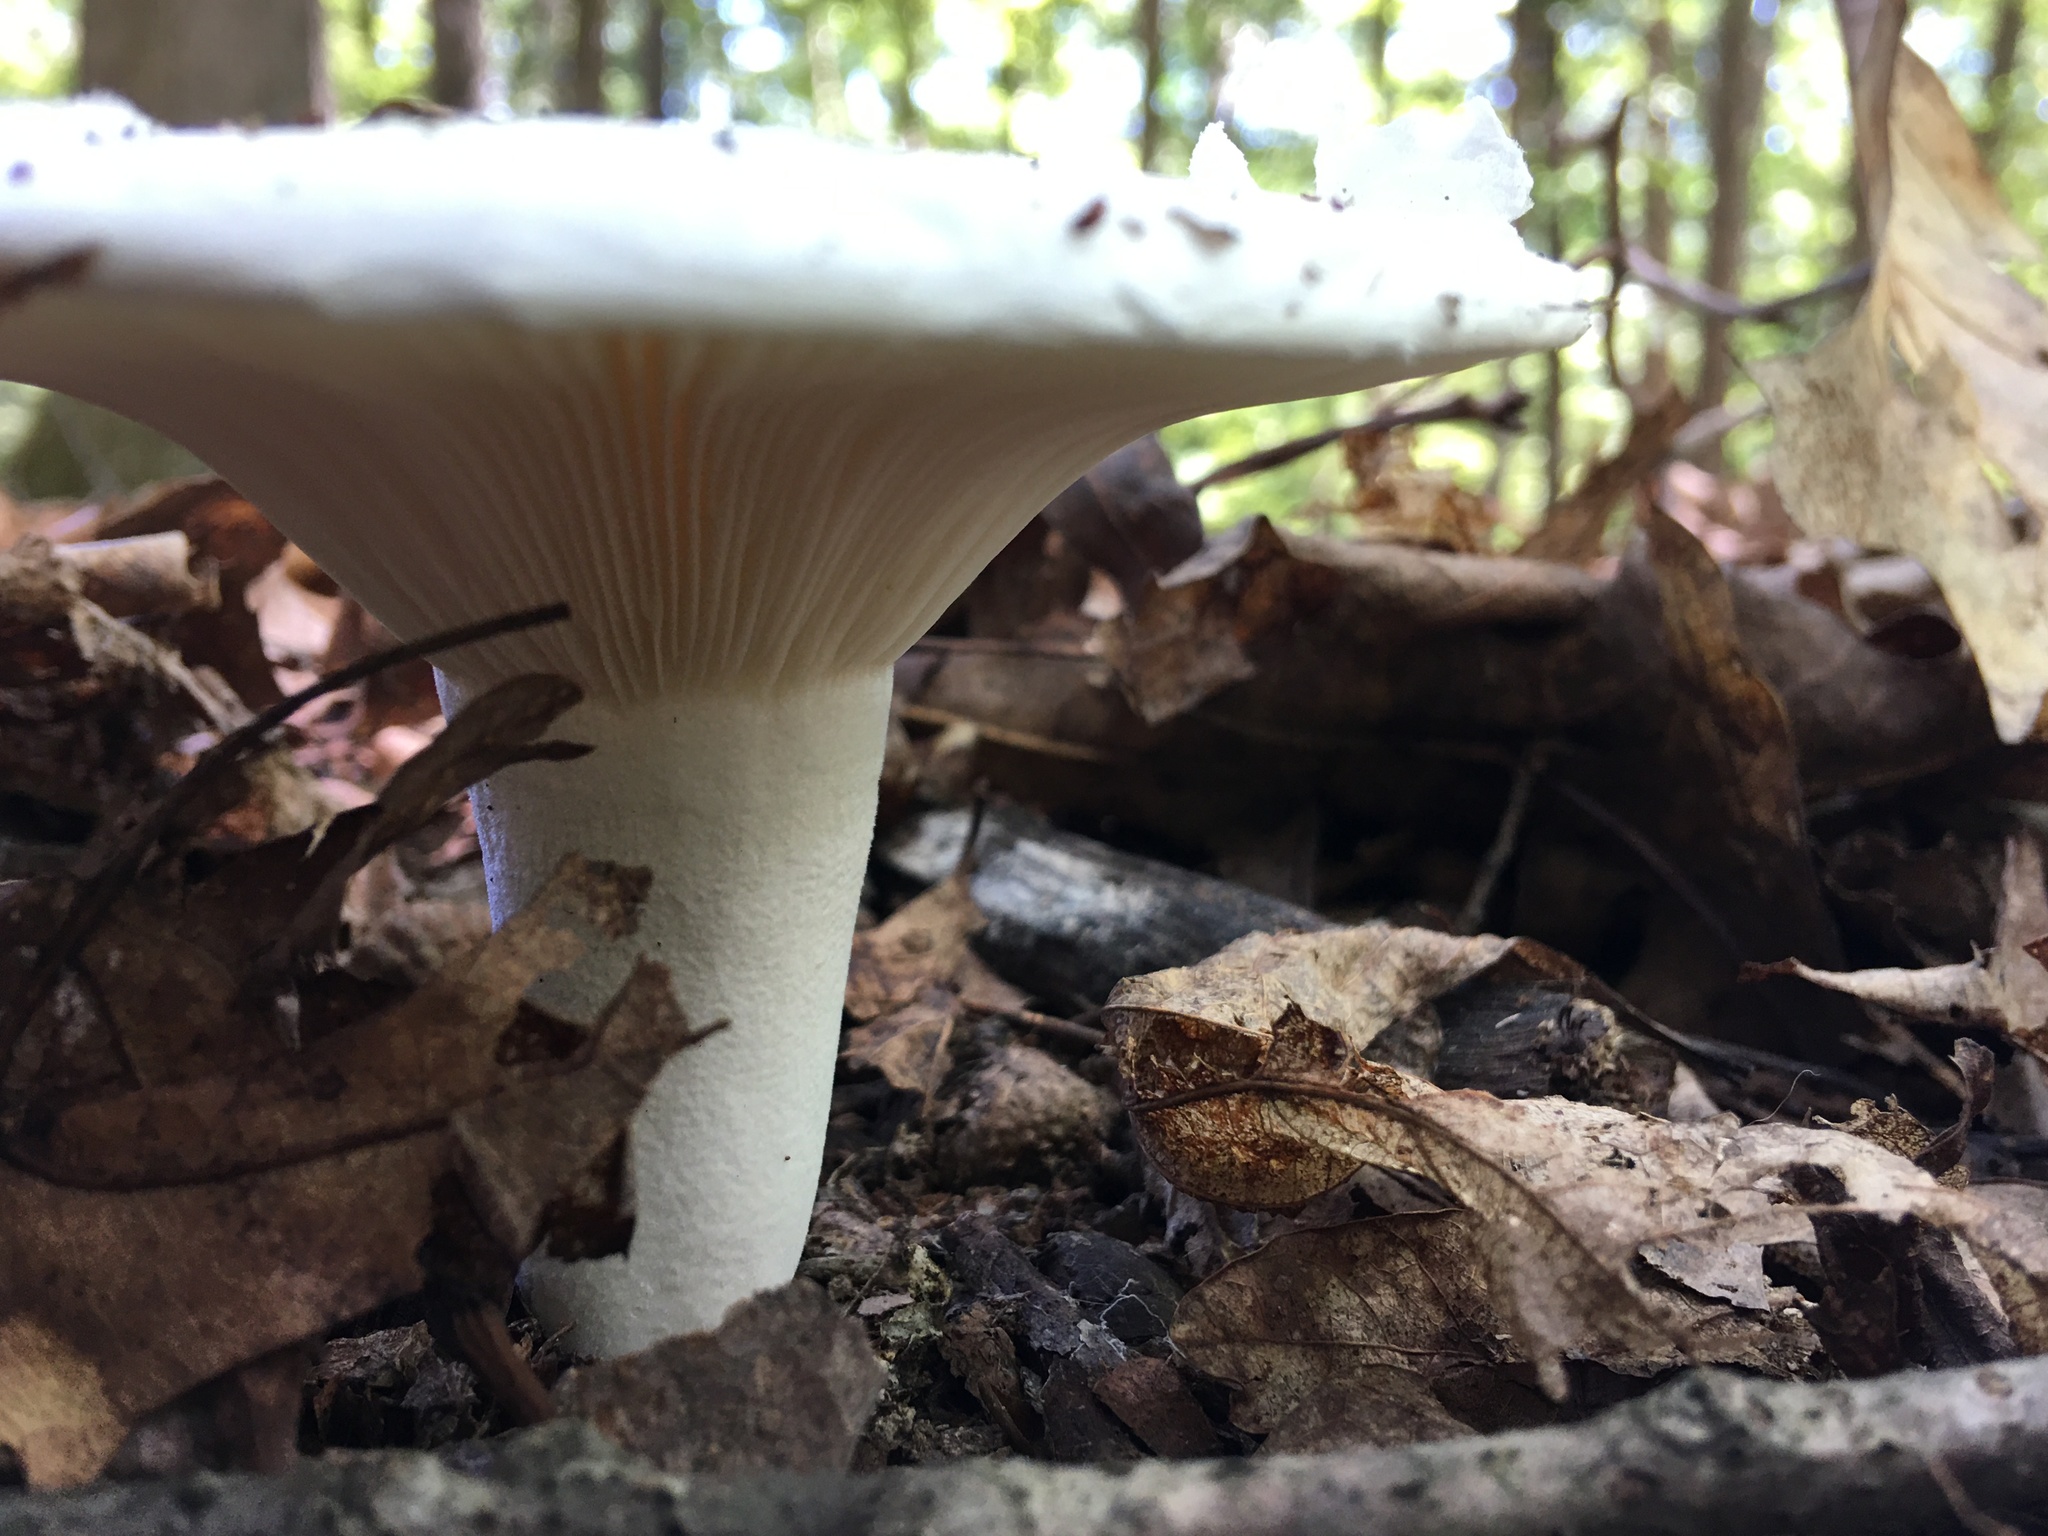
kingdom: Fungi
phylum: Basidiomycota
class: Agaricomycetes
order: Russulales
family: Russulaceae
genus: Lactifluus
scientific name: Lactifluus piperatus
